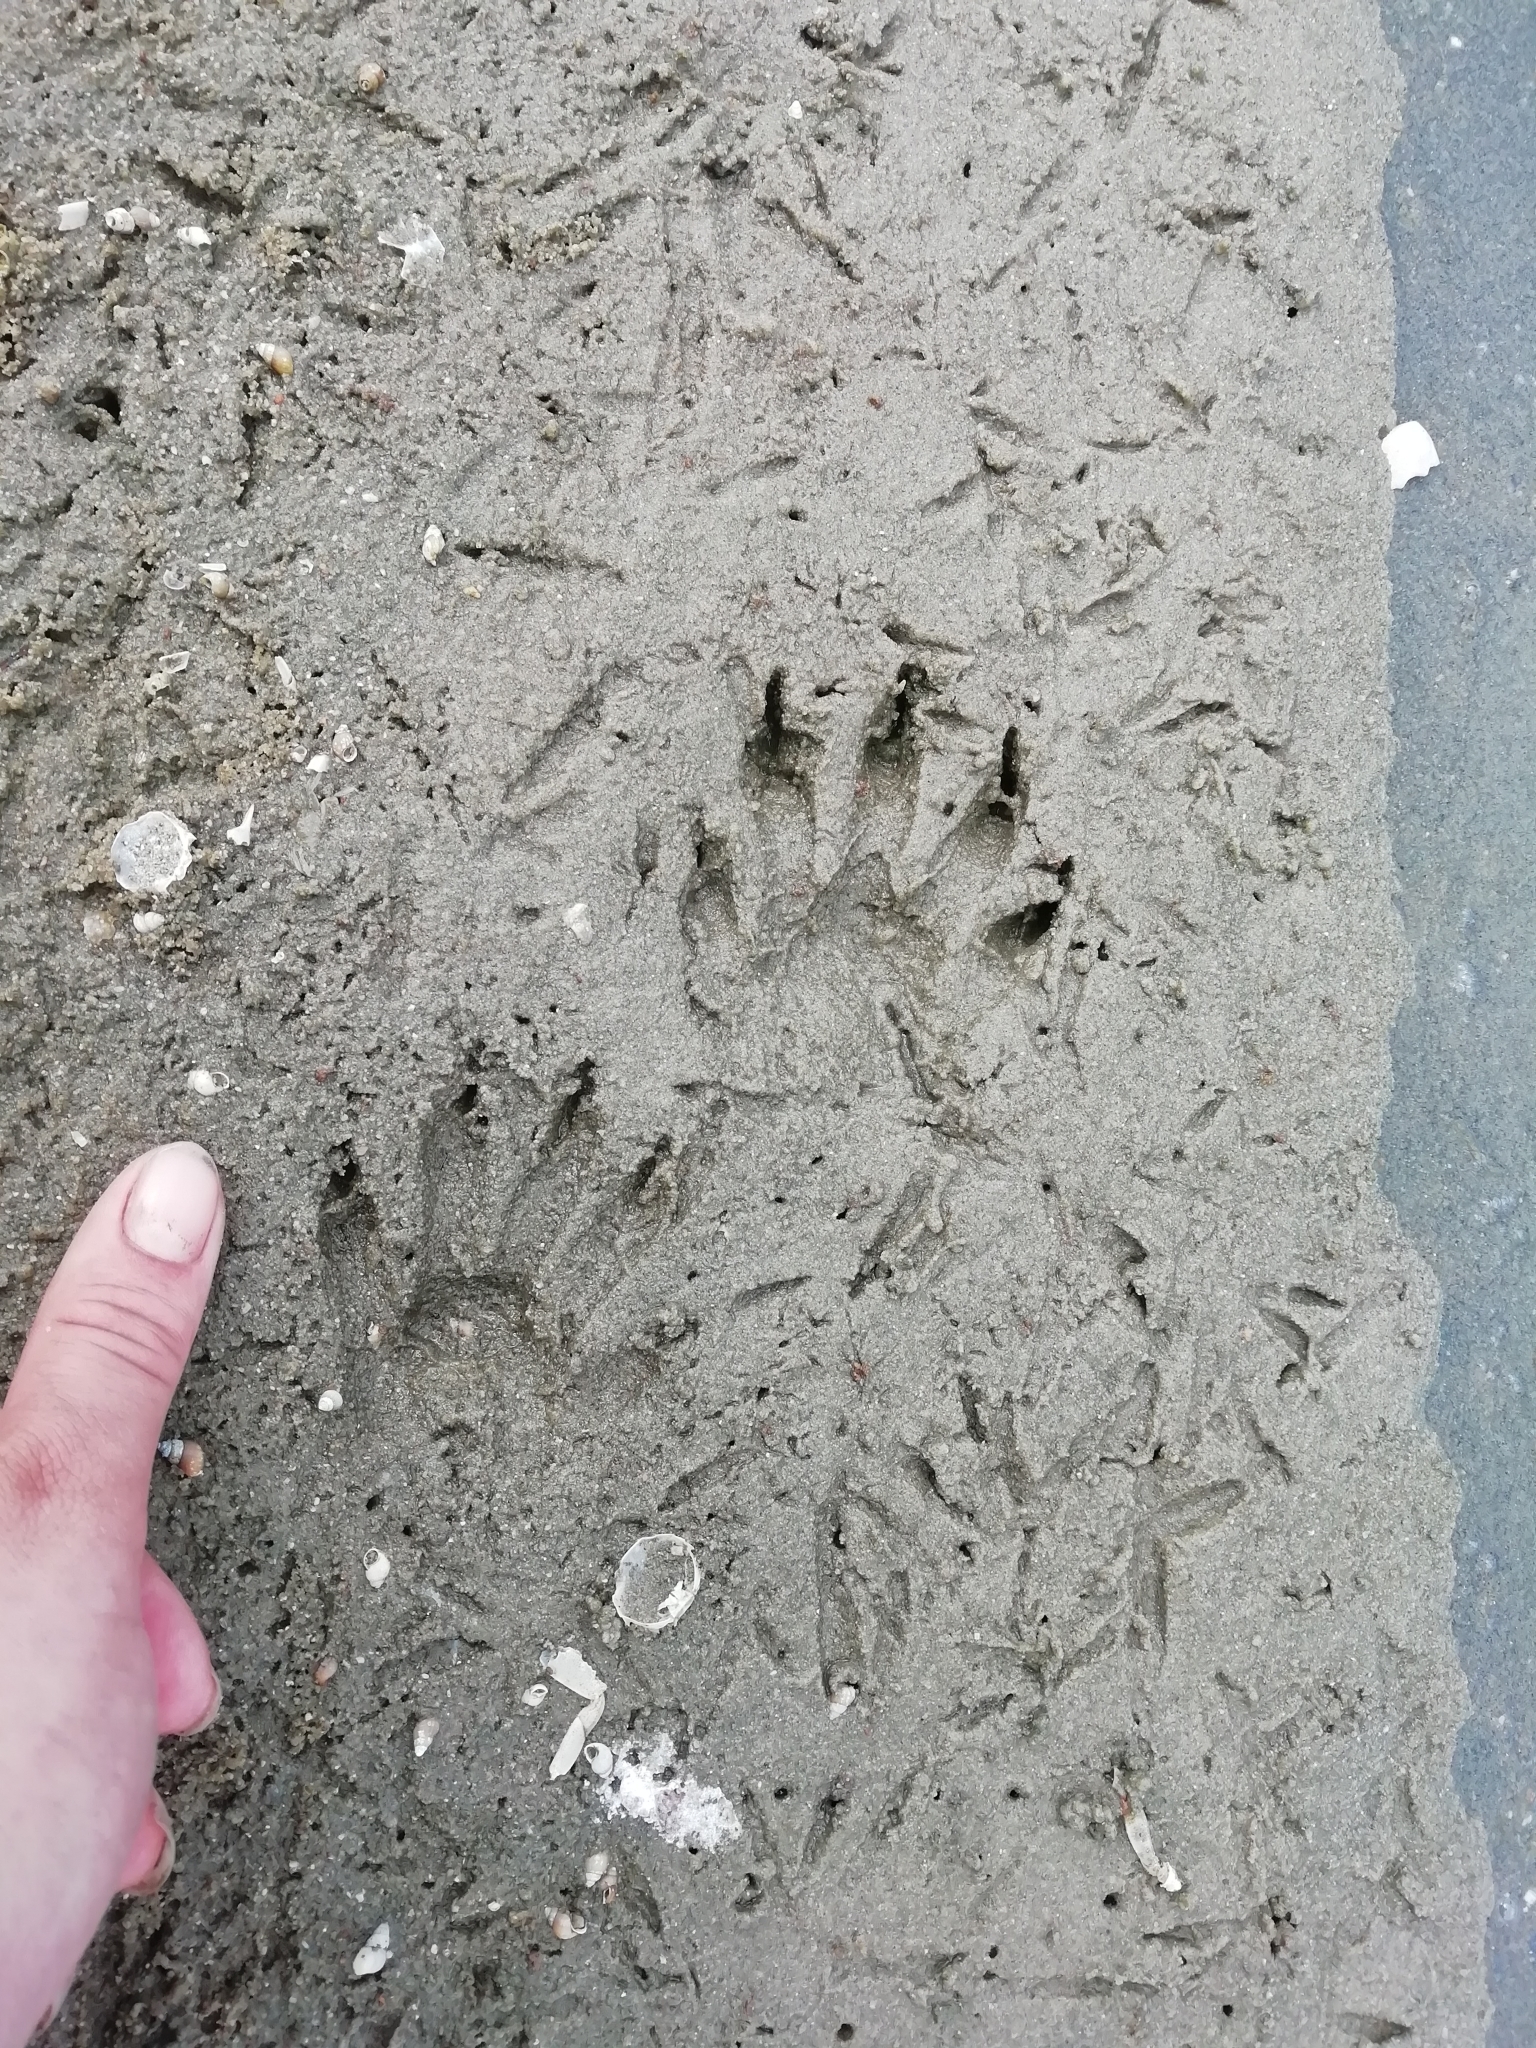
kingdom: Animalia
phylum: Chordata
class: Mammalia
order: Carnivora
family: Procyonidae
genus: Procyon
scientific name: Procyon cancrivorus
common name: Crab-eating raccoon
